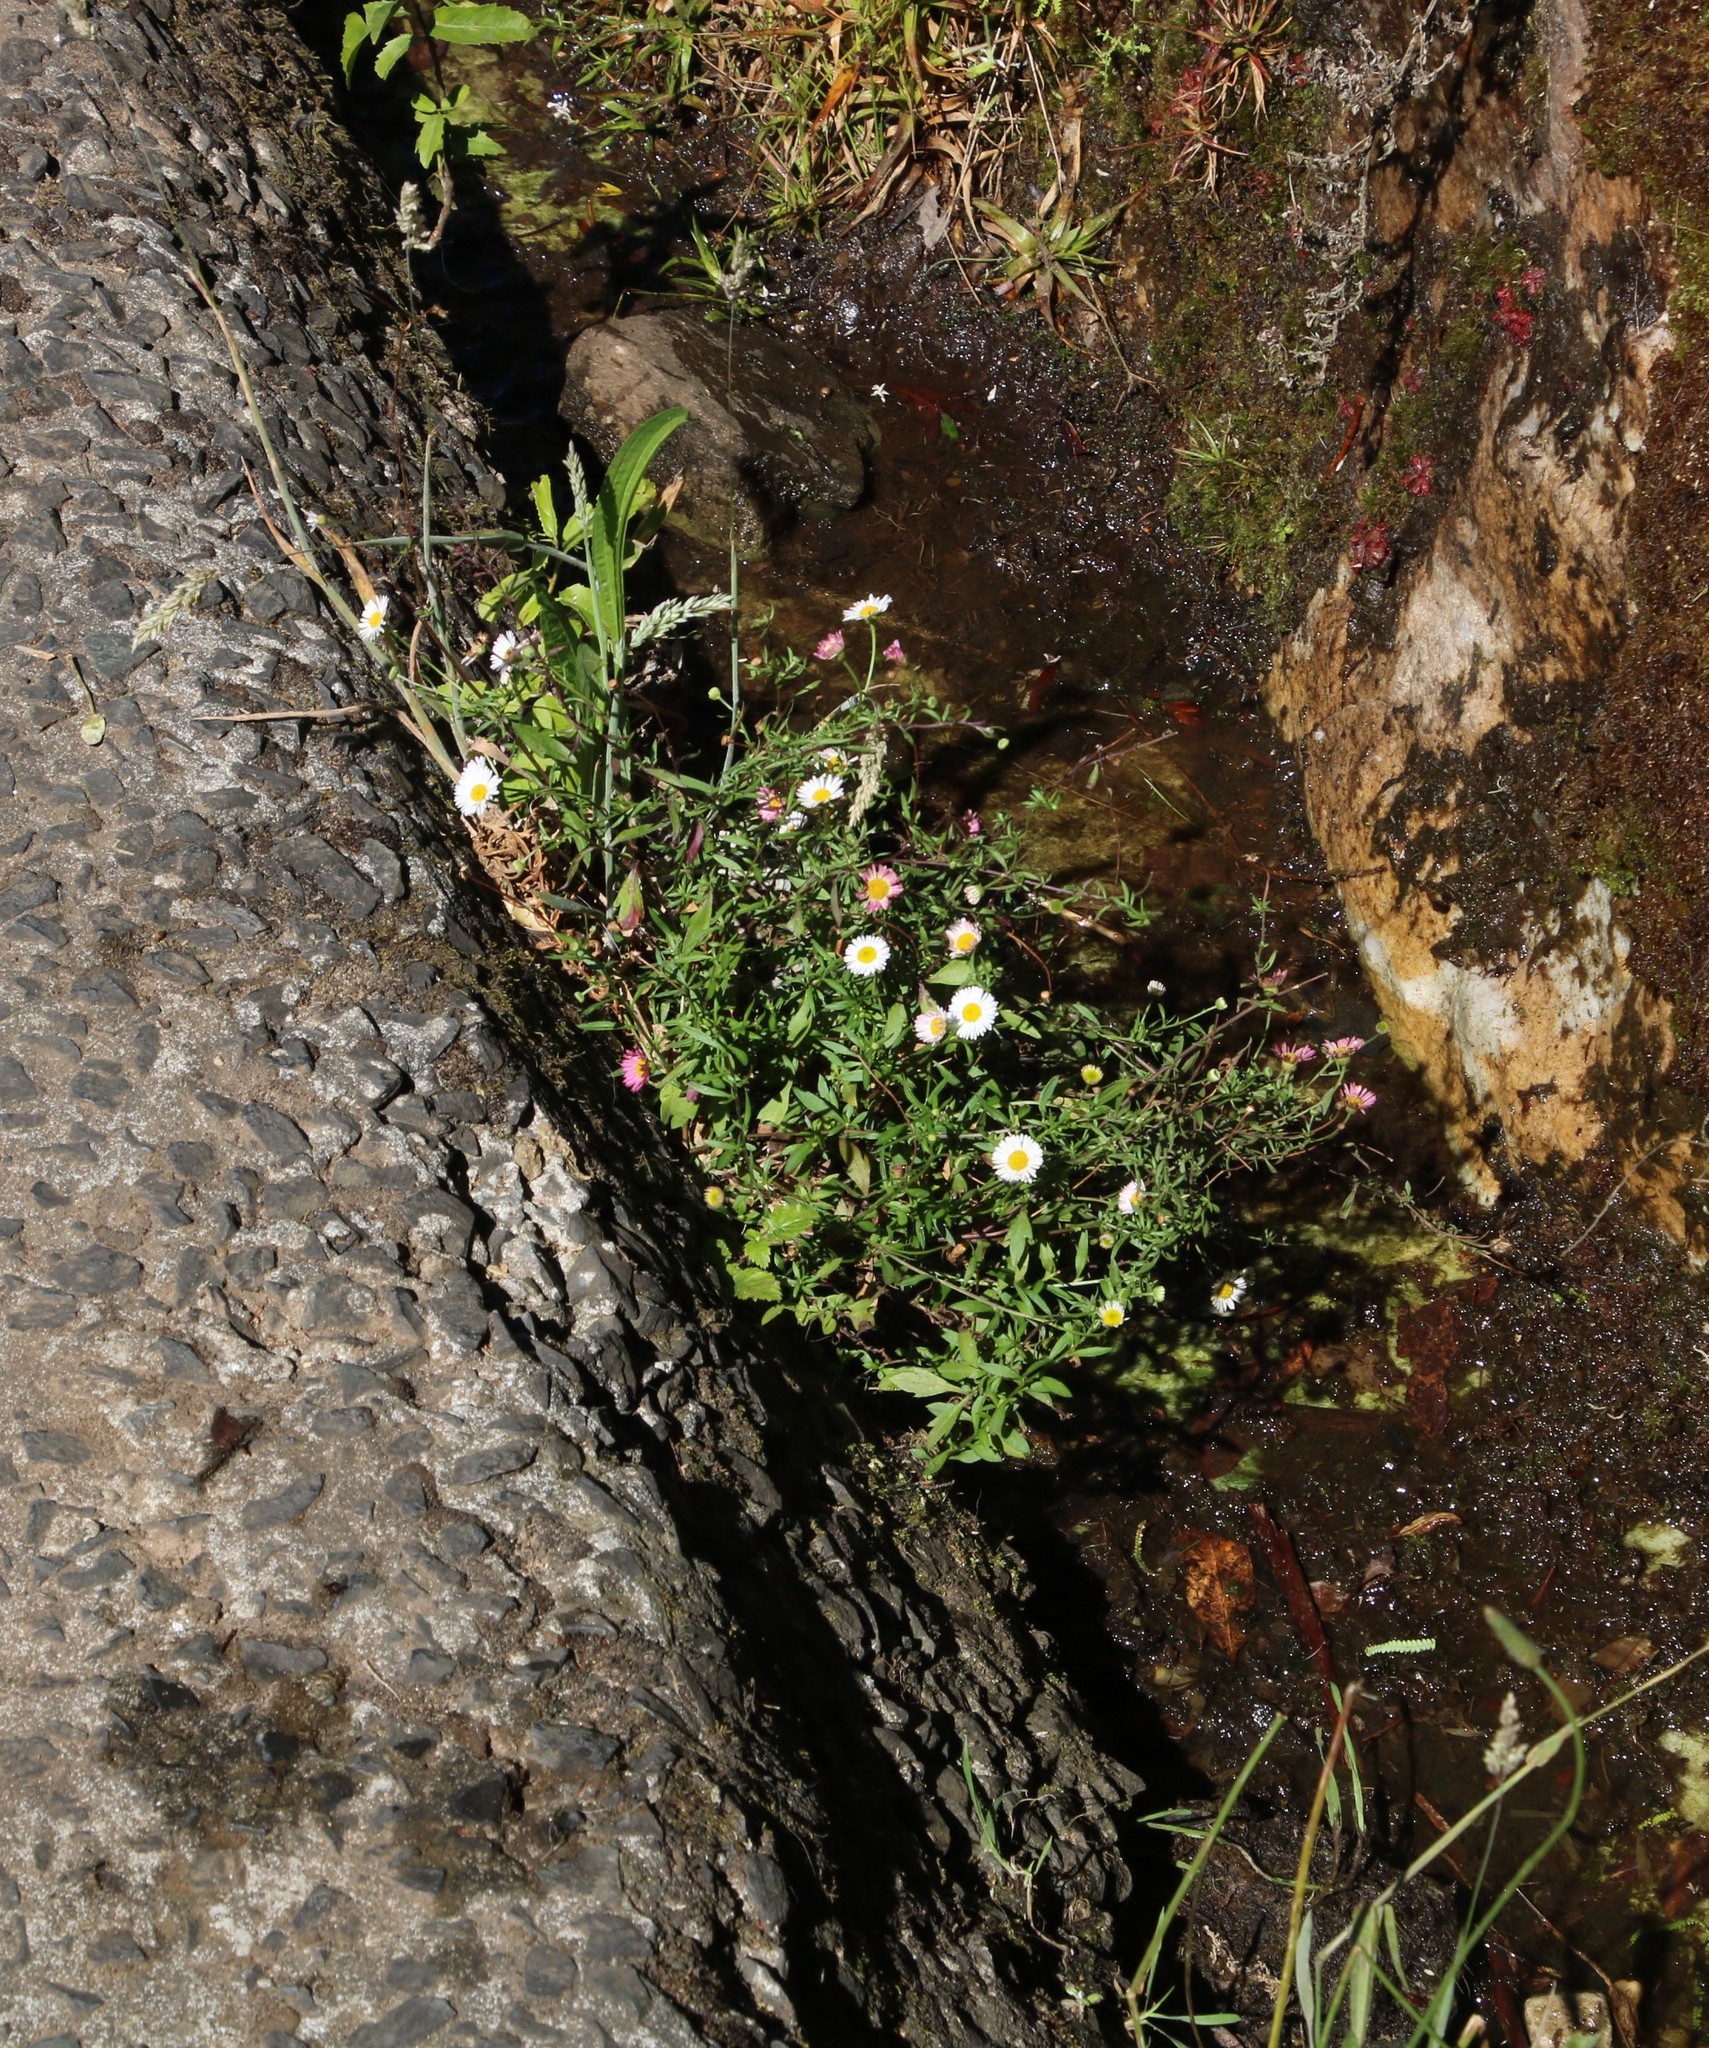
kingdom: Plantae
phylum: Tracheophyta
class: Magnoliopsida
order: Asterales
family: Asteraceae
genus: Erigeron
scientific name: Erigeron karvinskianus
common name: Mexican fleabane
